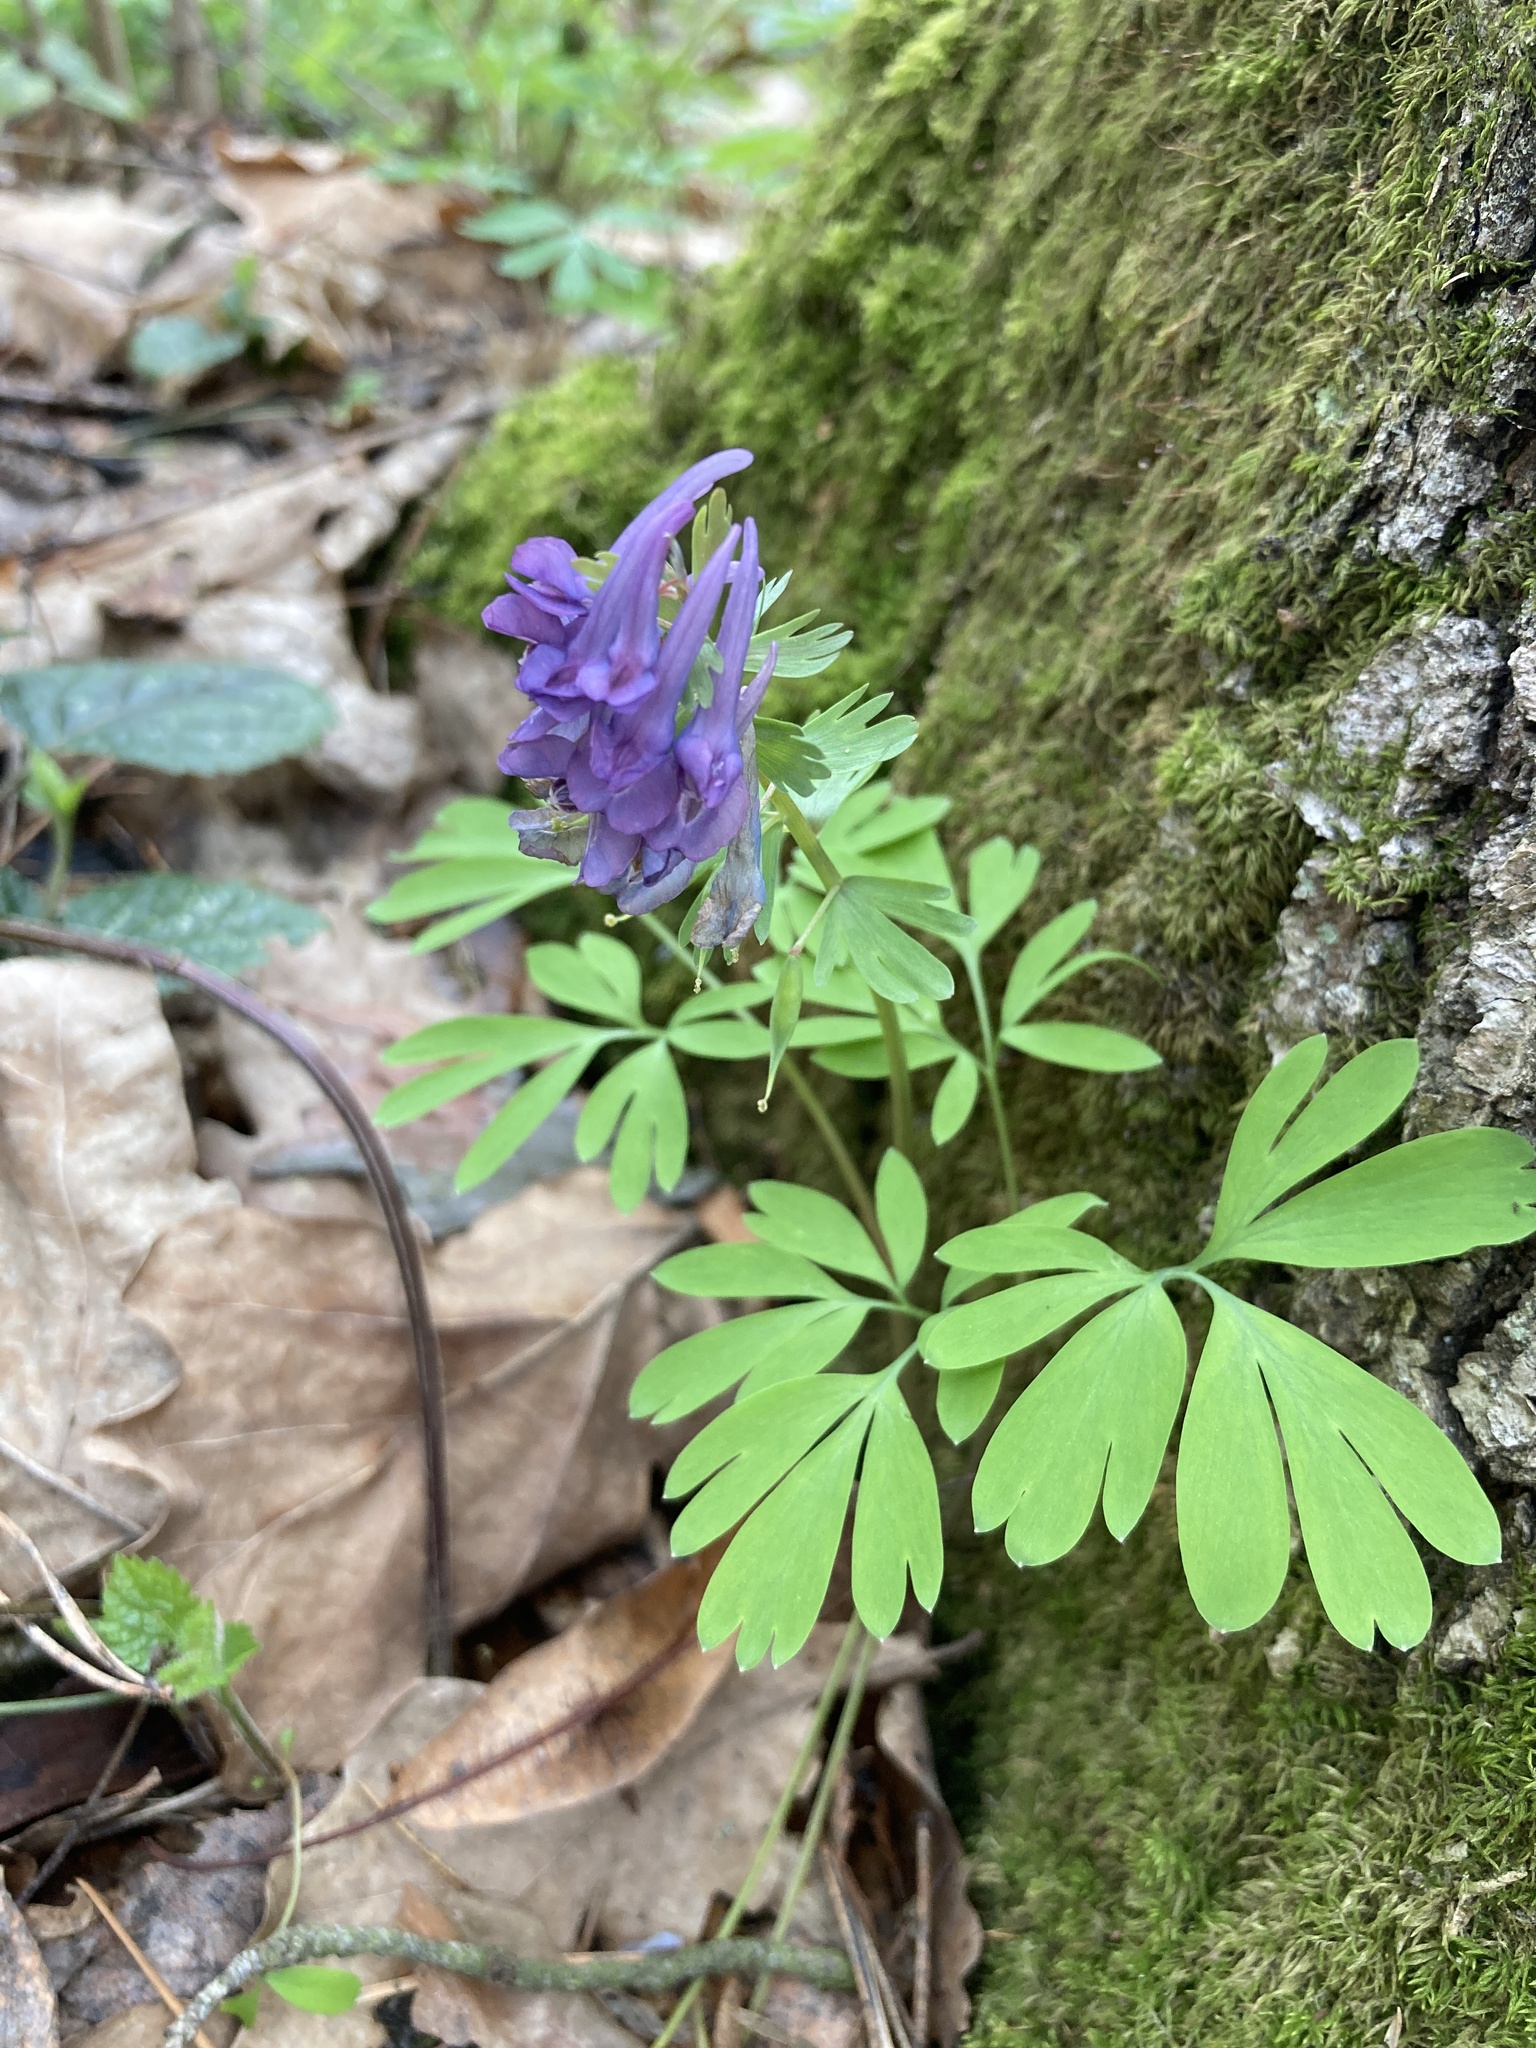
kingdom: Plantae
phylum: Tracheophyta
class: Magnoliopsida
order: Ranunculales
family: Papaveraceae
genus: Corydalis
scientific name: Corydalis solida
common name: Bird-in-a-bush
